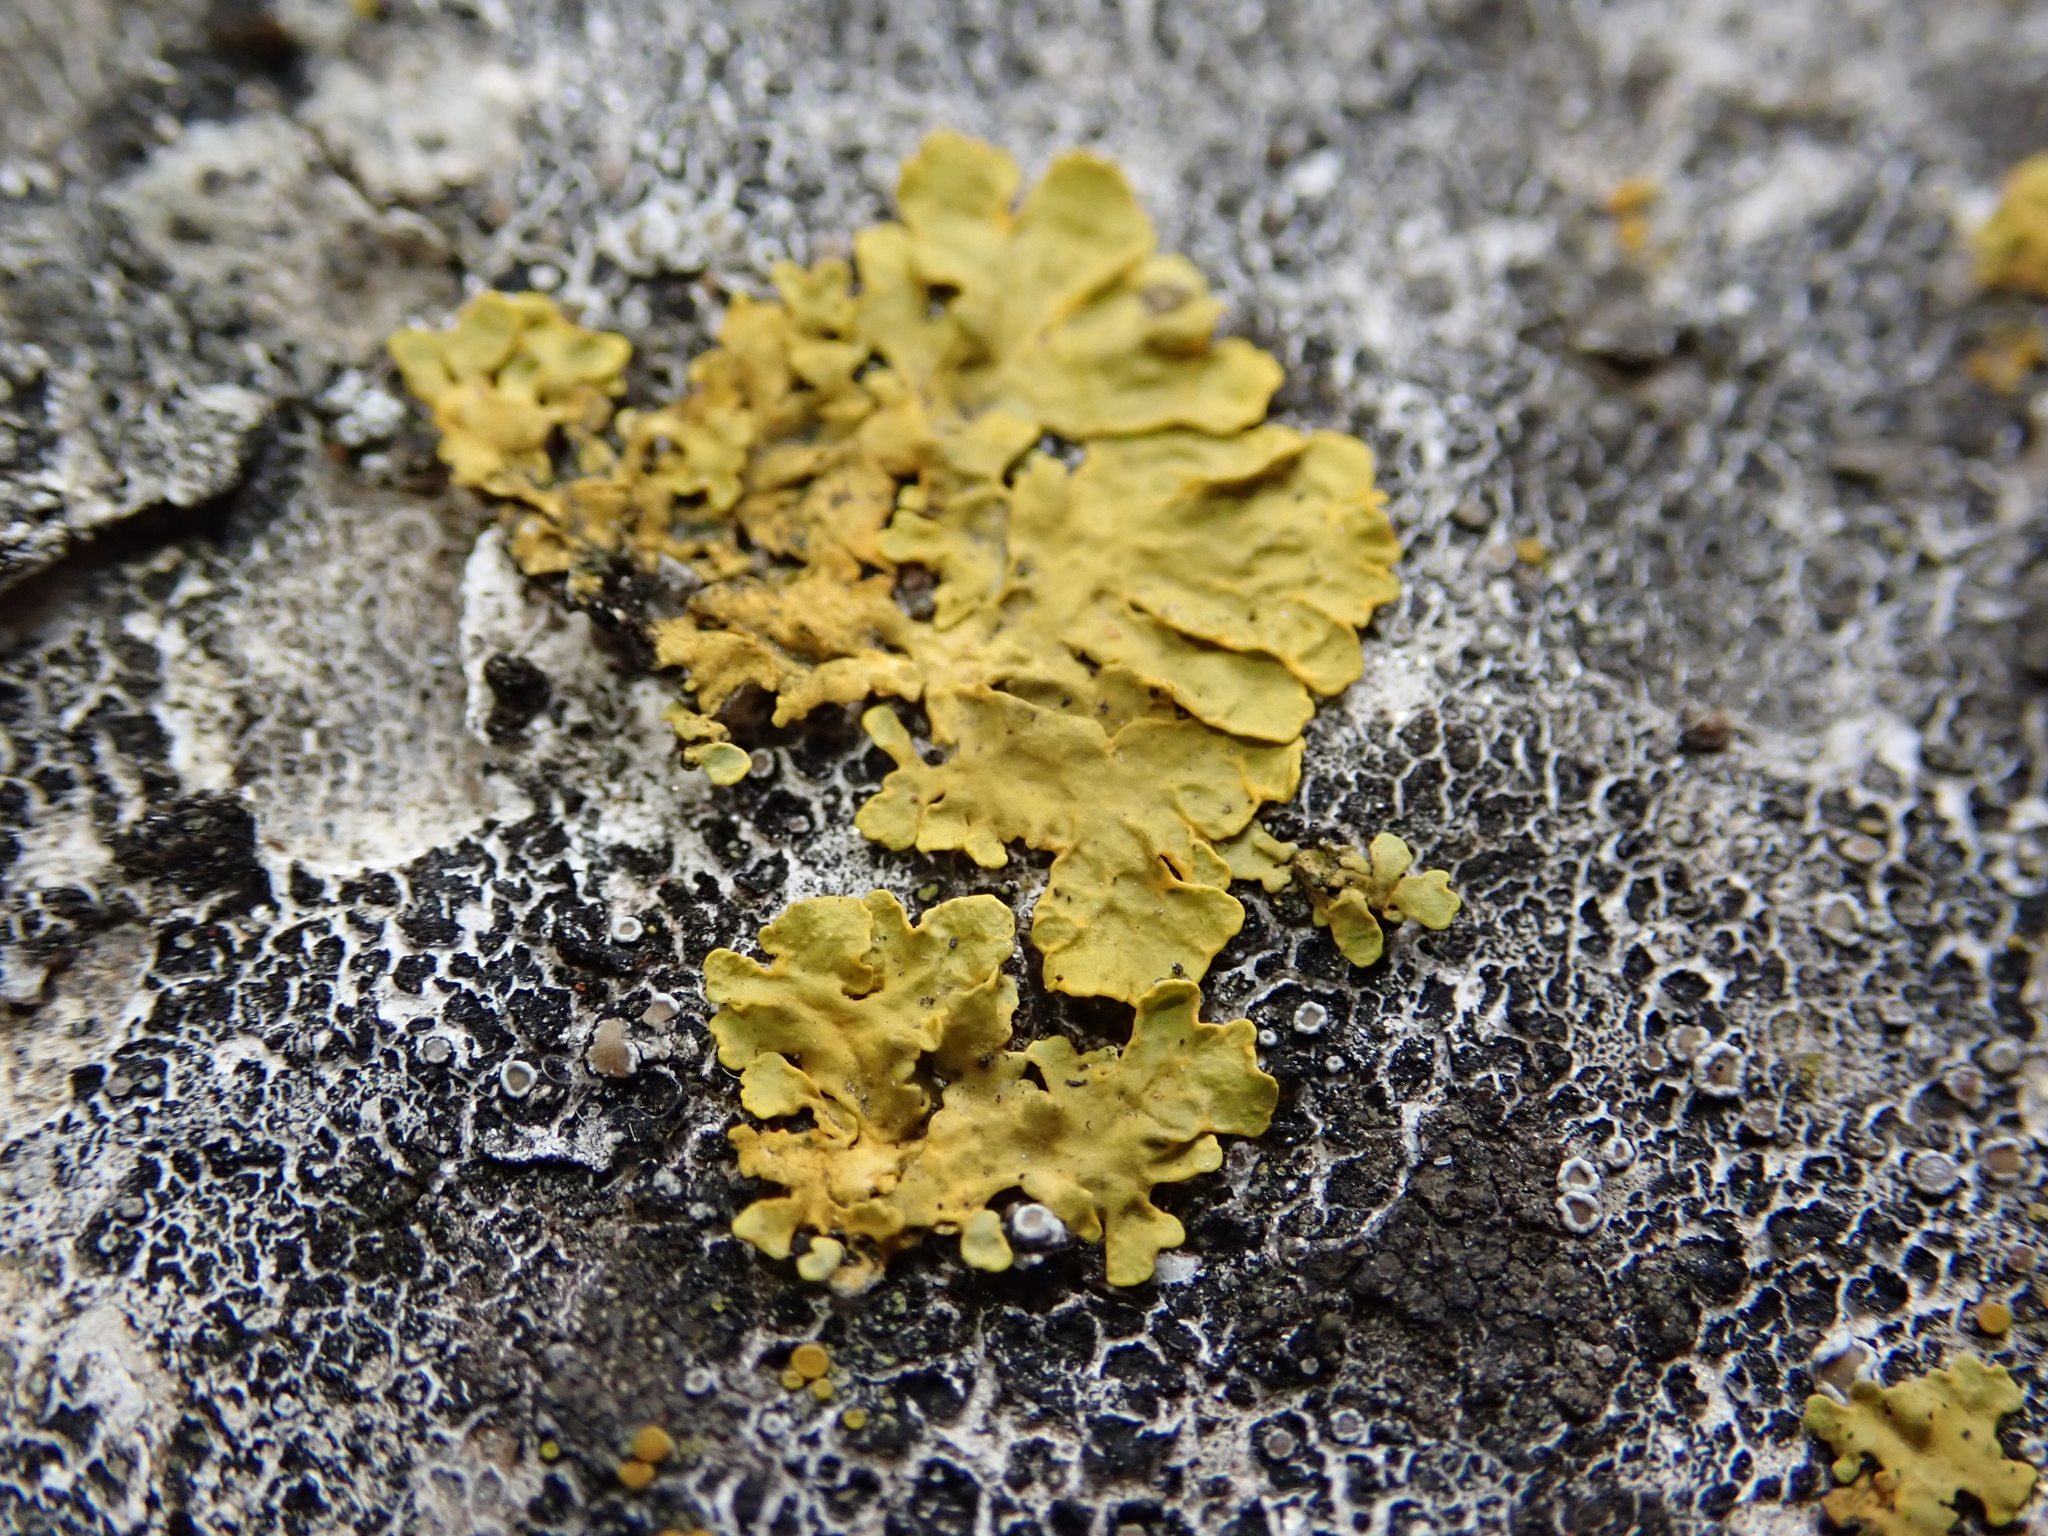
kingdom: Fungi
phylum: Ascomycota
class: Lecanoromycetes
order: Teloschistales
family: Teloschistaceae
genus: Xanthoria
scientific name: Xanthoria parietina
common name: Common orange lichen
